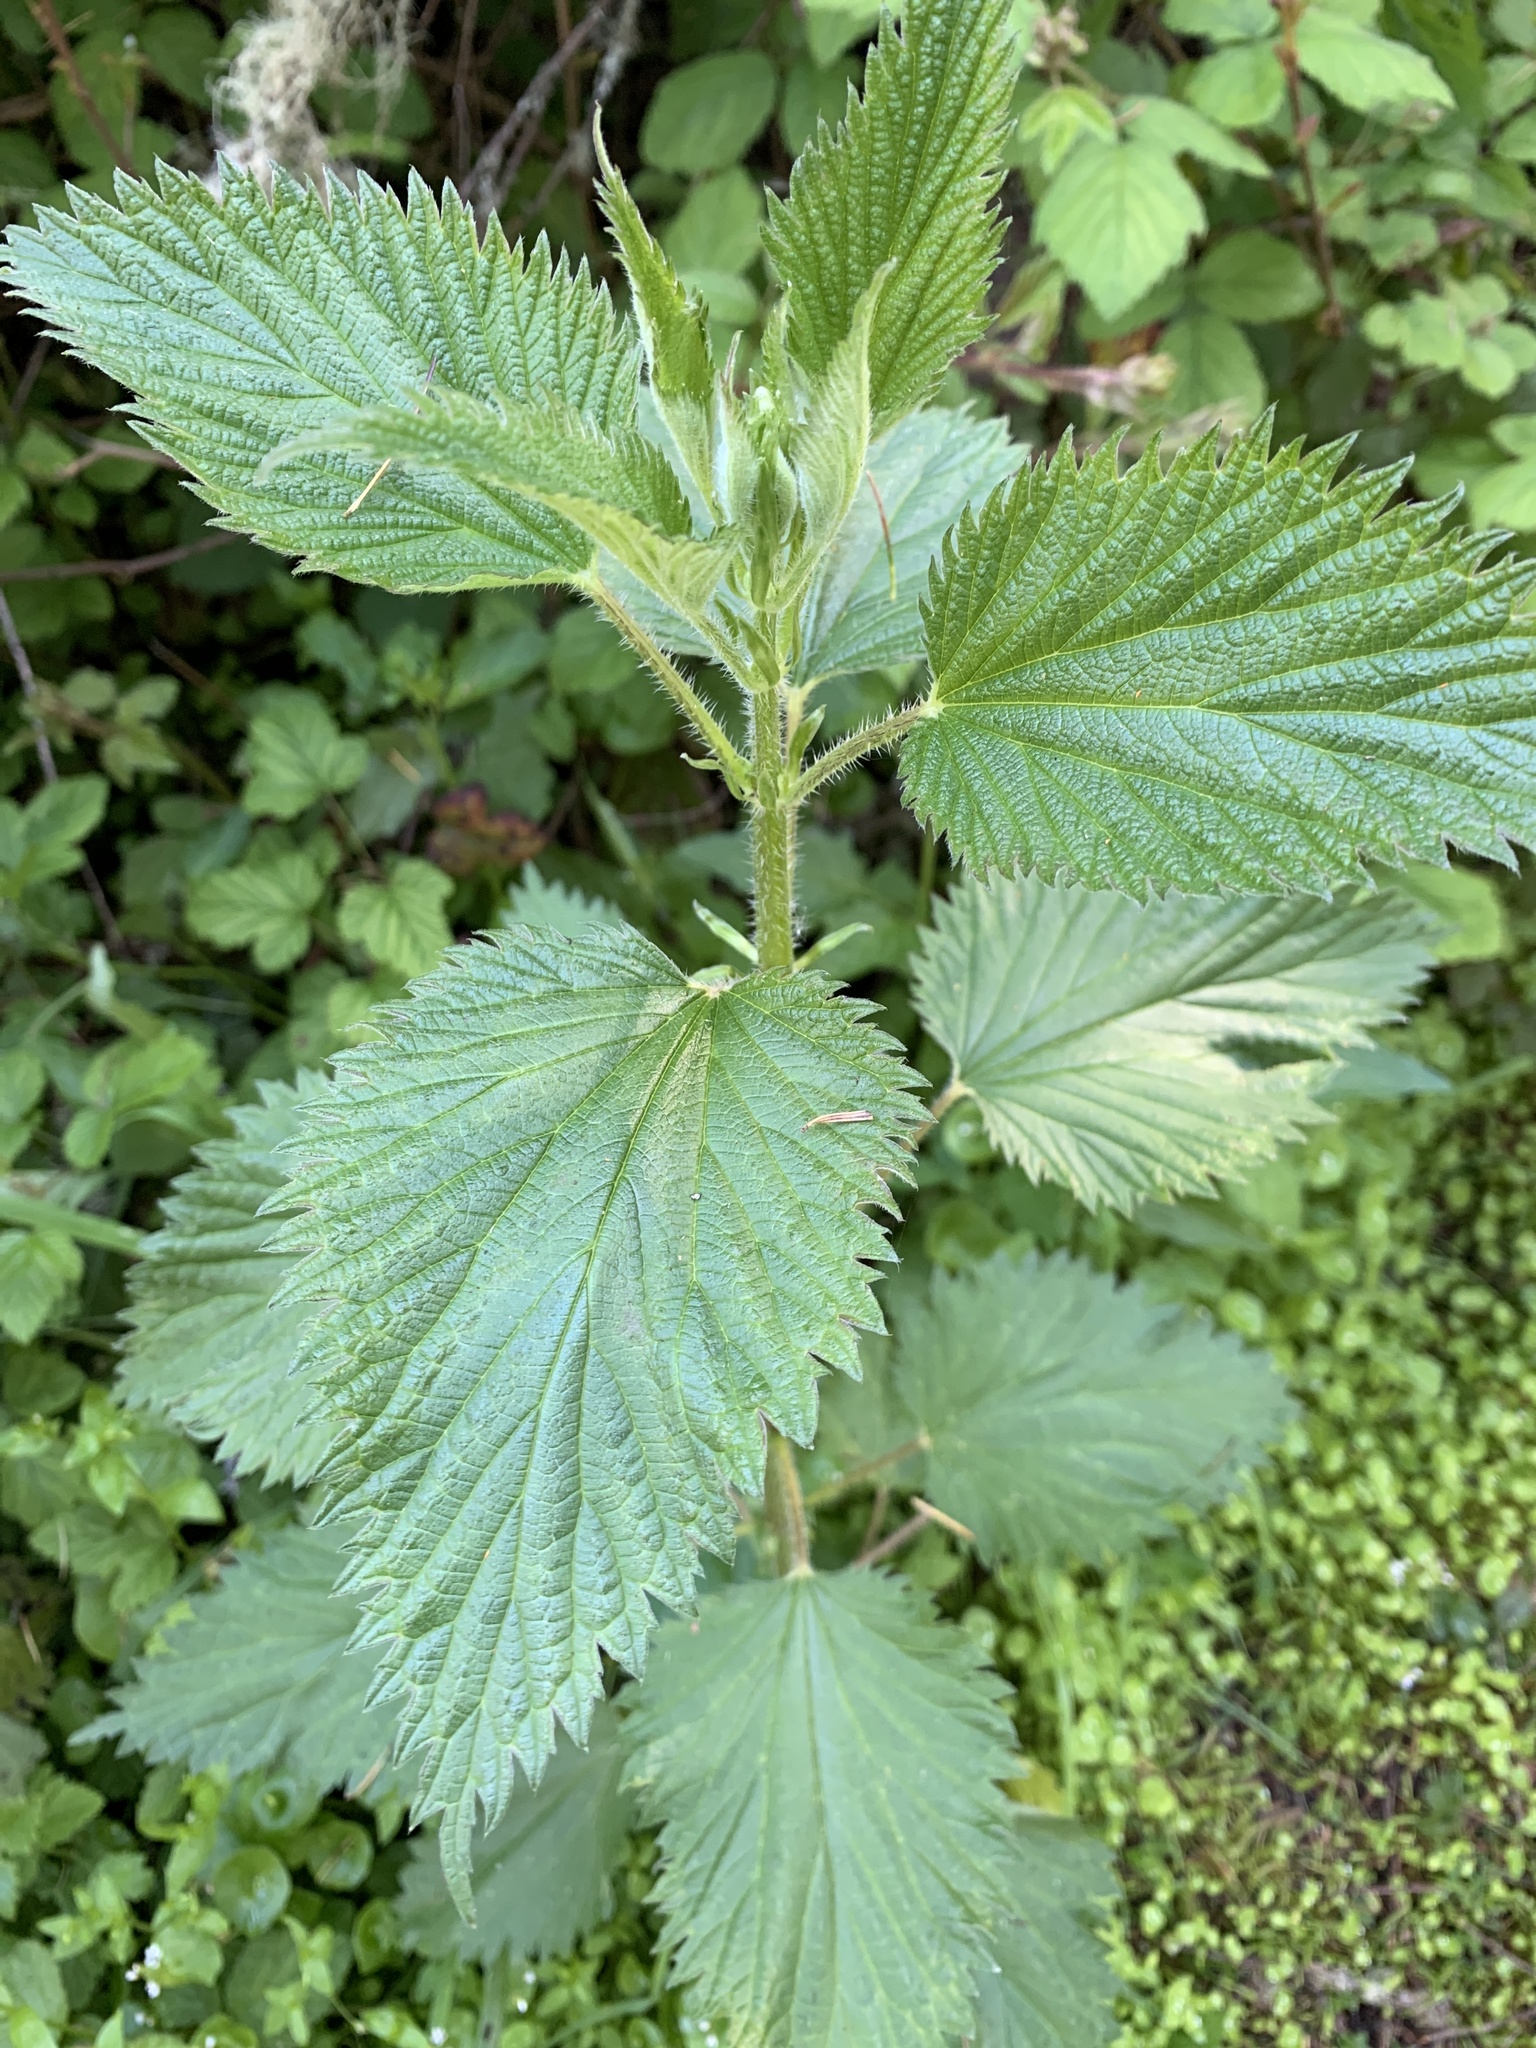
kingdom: Plantae
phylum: Tracheophyta
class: Magnoliopsida
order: Rosales
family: Urticaceae
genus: Urtica
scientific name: Urtica dioica
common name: Common nettle
